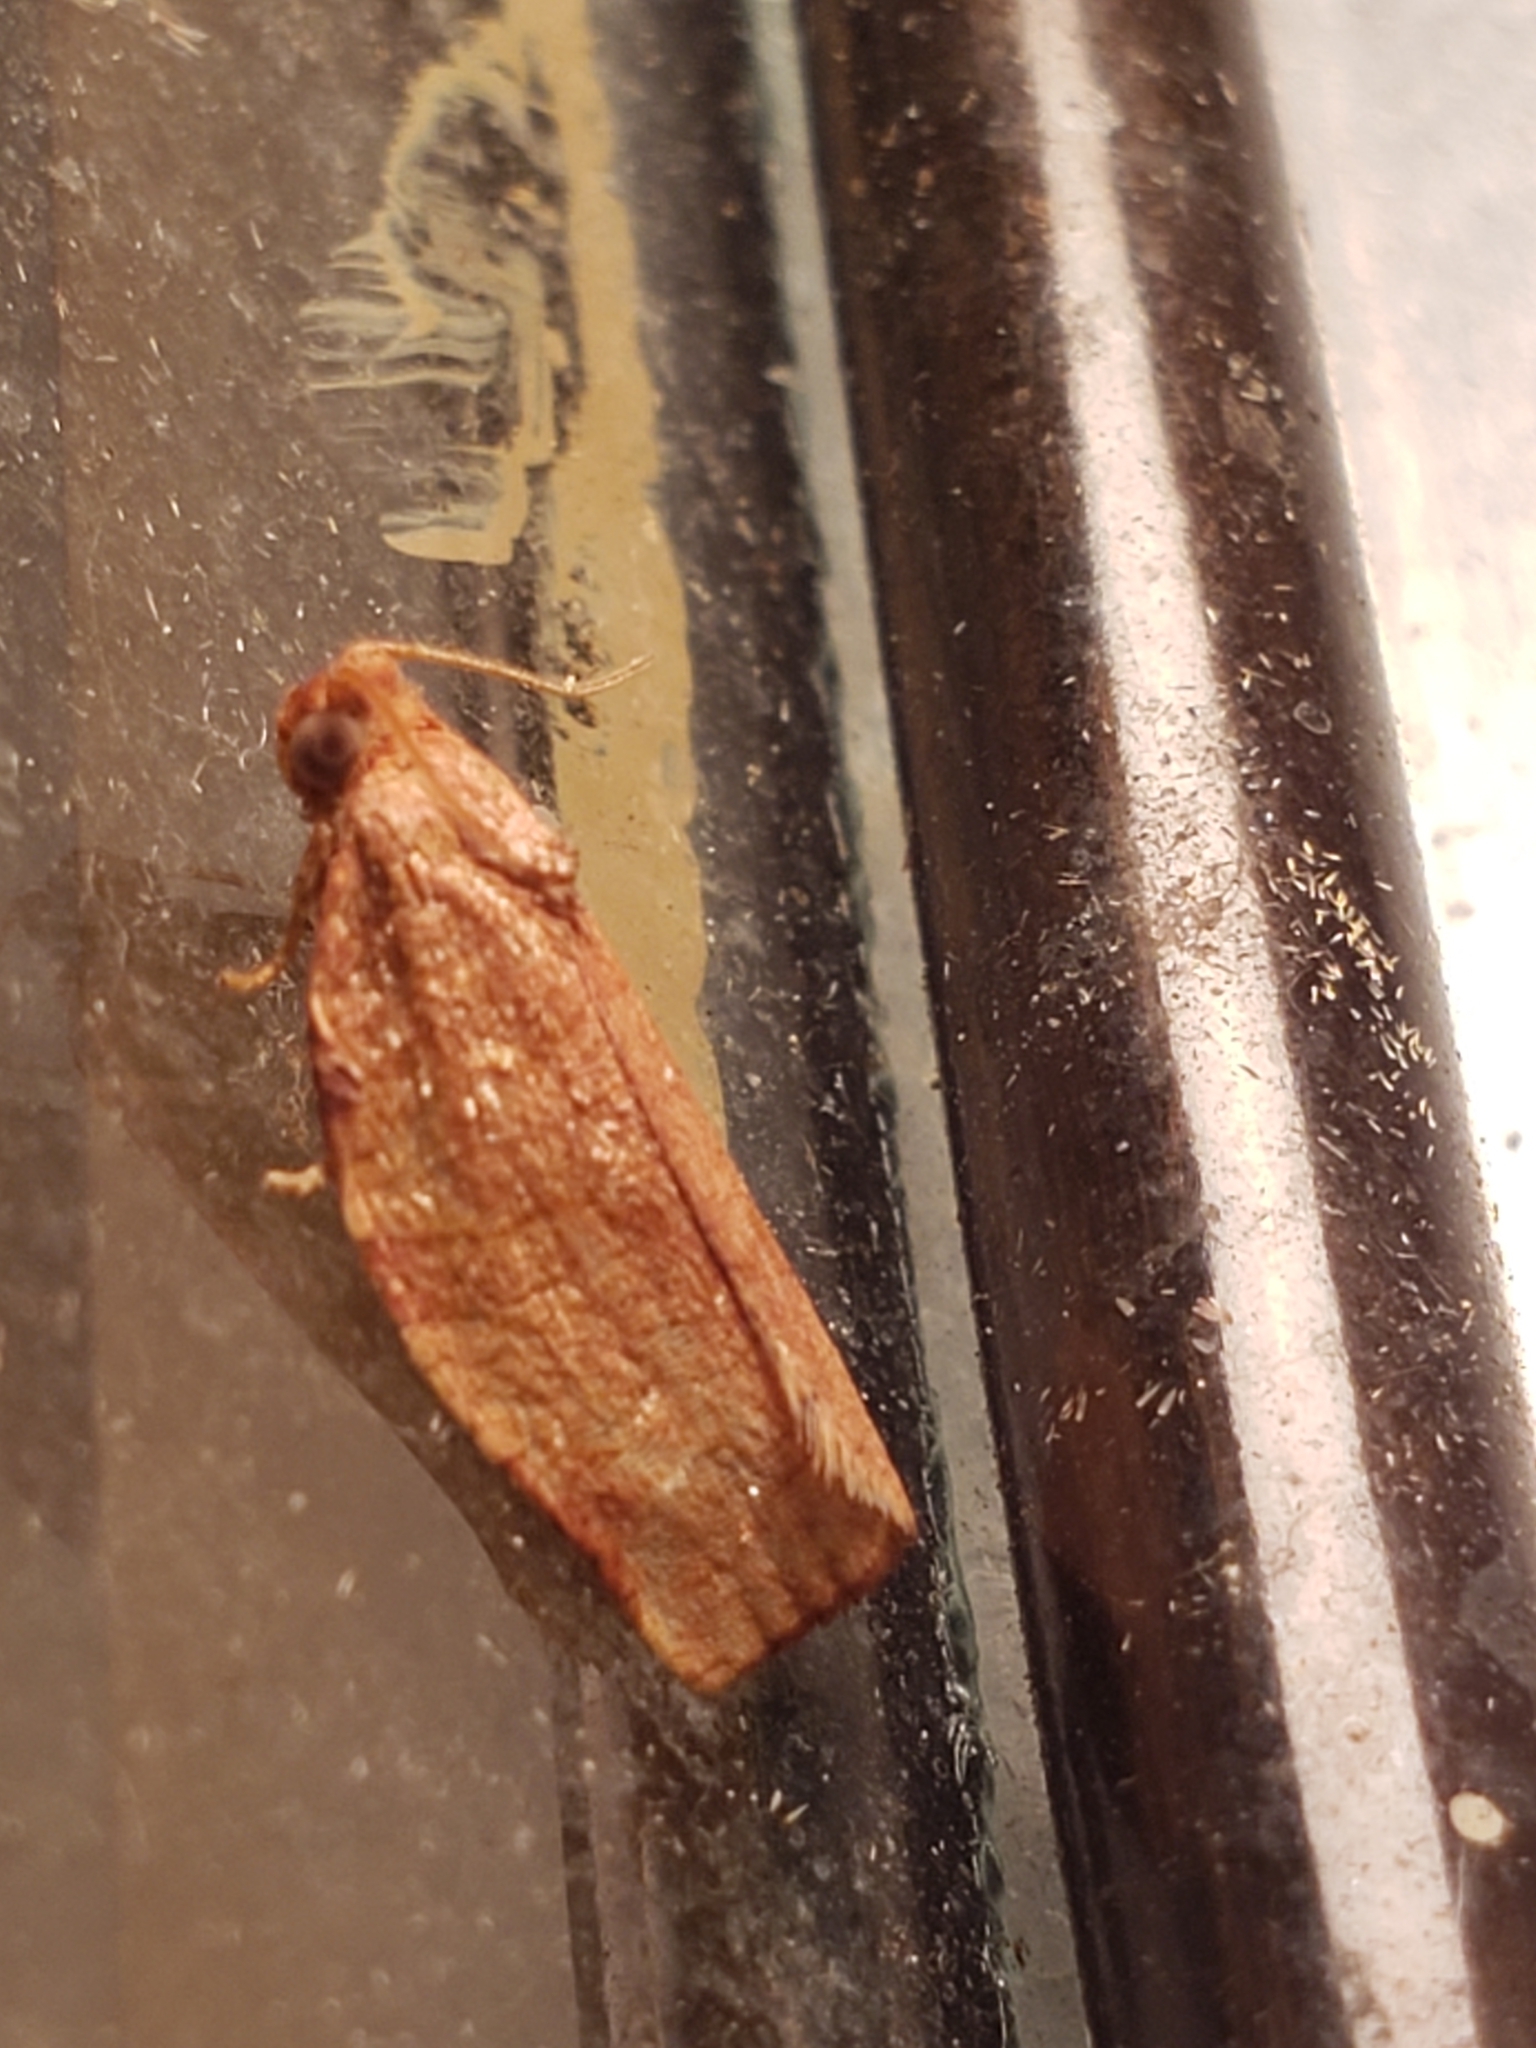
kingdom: Animalia
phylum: Arthropoda
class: Insecta
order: Lepidoptera
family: Tortricidae
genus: Choristoneura
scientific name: Choristoneura rosaceana
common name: Oblique-banded leafroller moth
